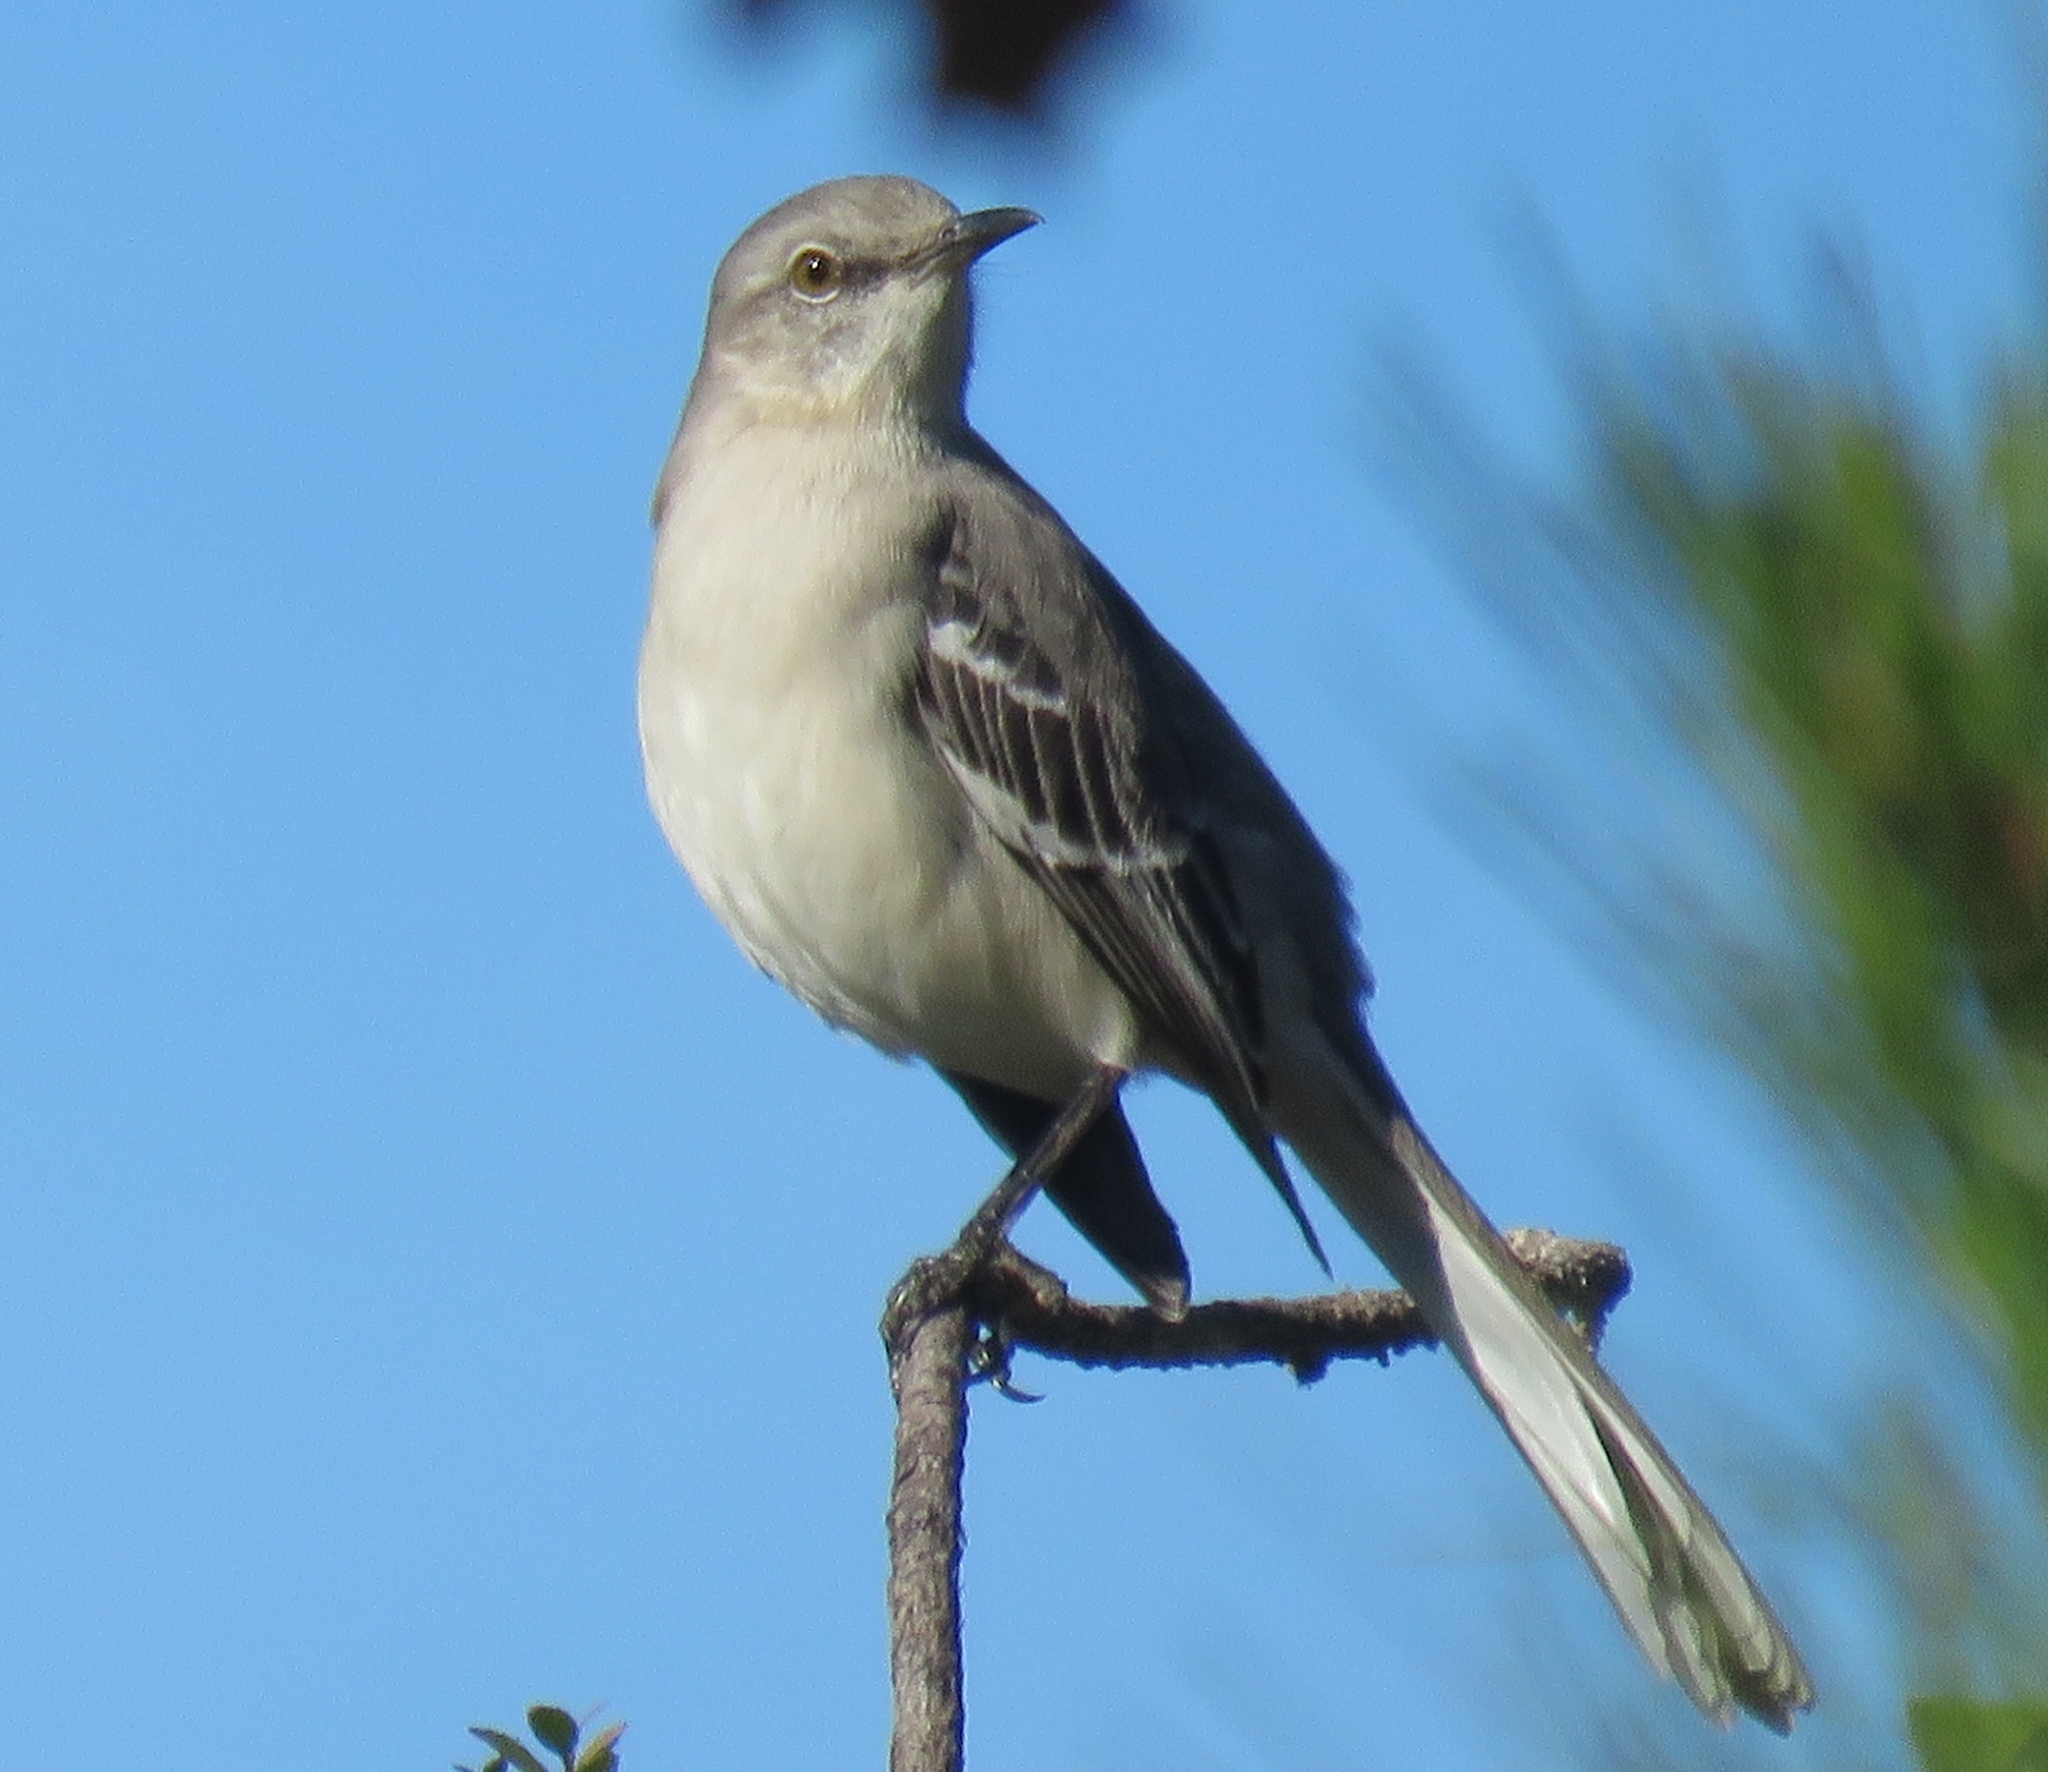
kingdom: Animalia
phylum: Chordata
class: Aves
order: Passeriformes
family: Mimidae
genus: Mimus
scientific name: Mimus polyglottos
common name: Northern mockingbird
